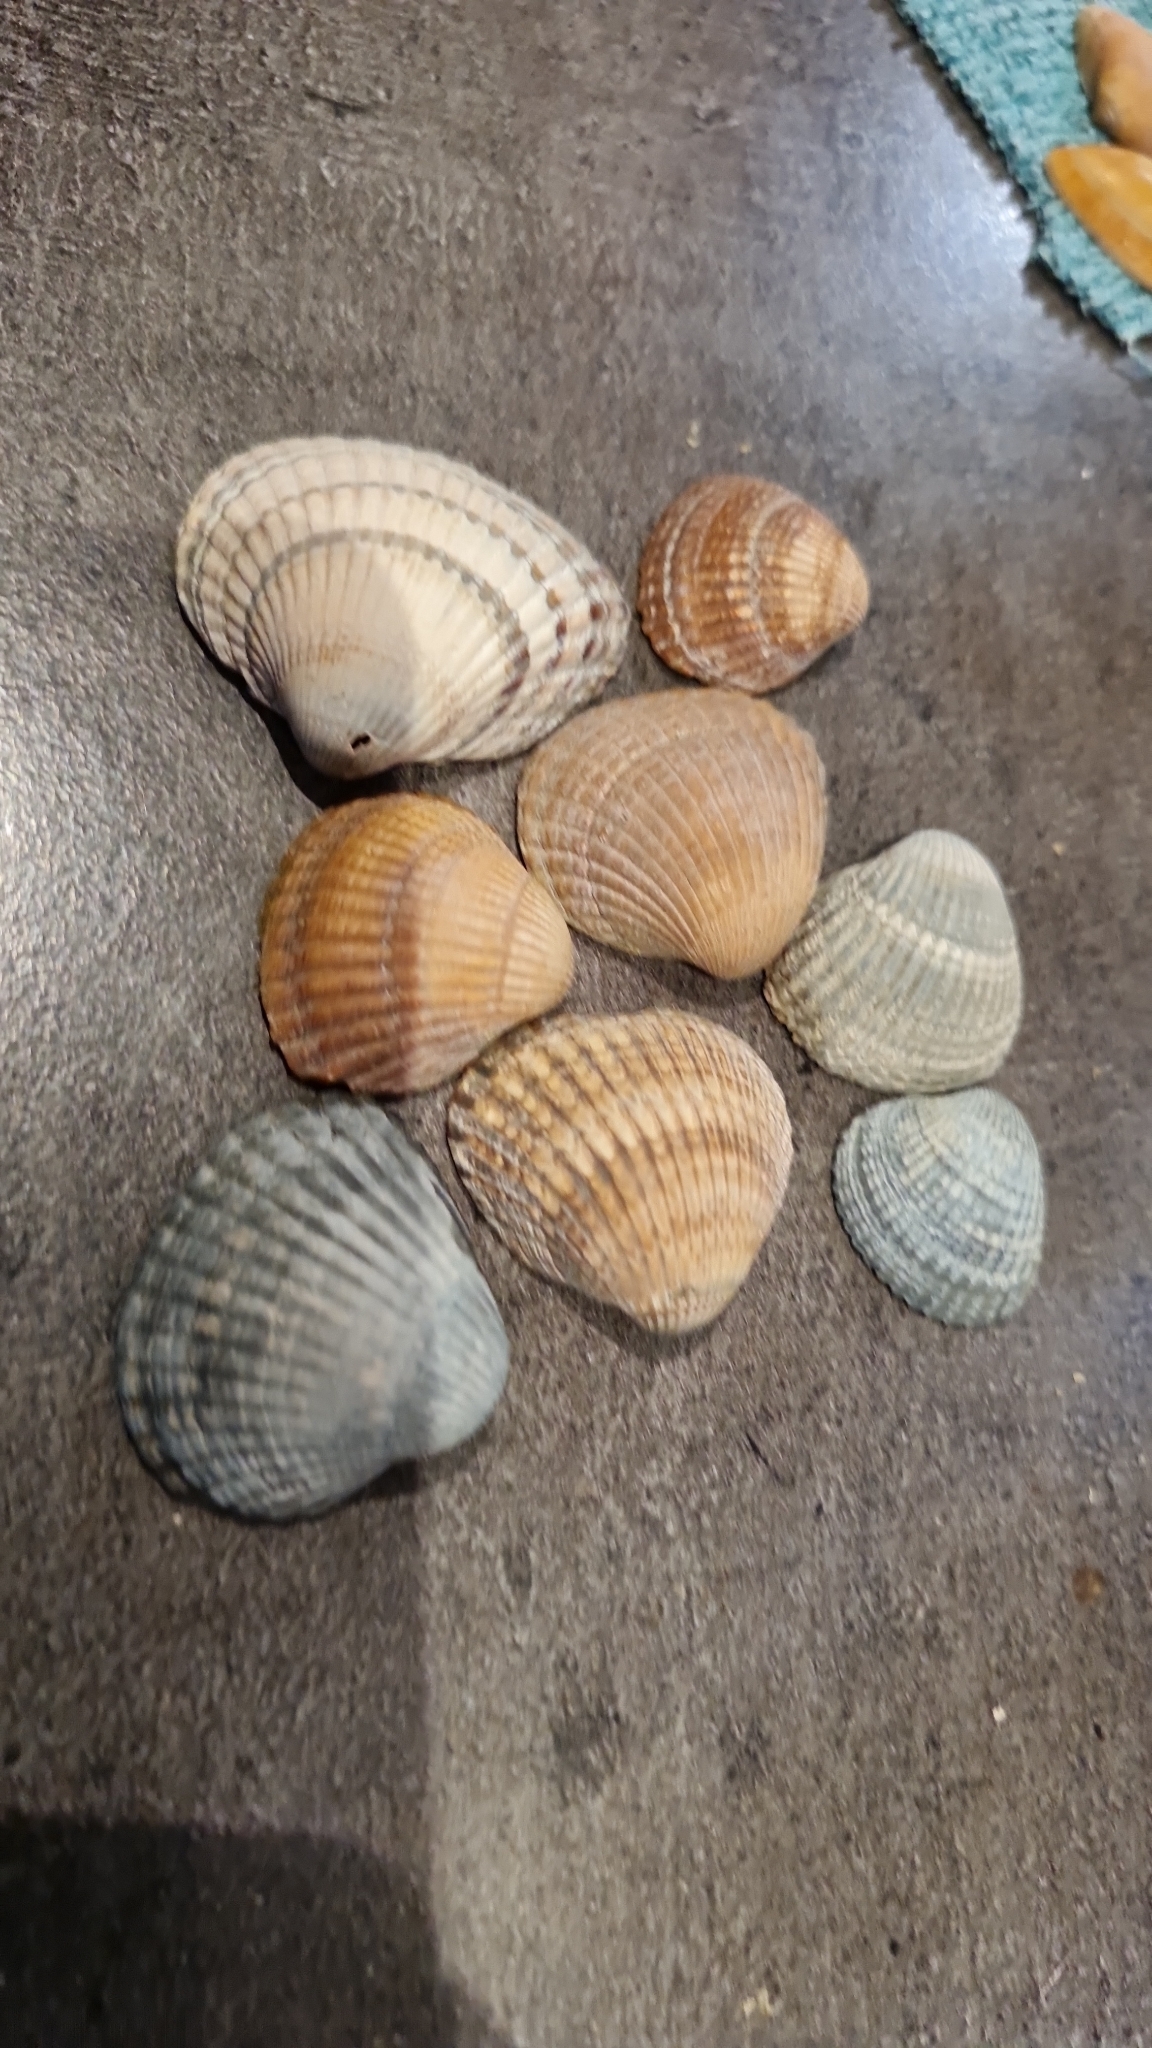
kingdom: Animalia
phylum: Mollusca
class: Bivalvia
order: Cardiida
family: Cardiidae
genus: Cerastoderma
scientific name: Cerastoderma edule
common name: Common cockle
